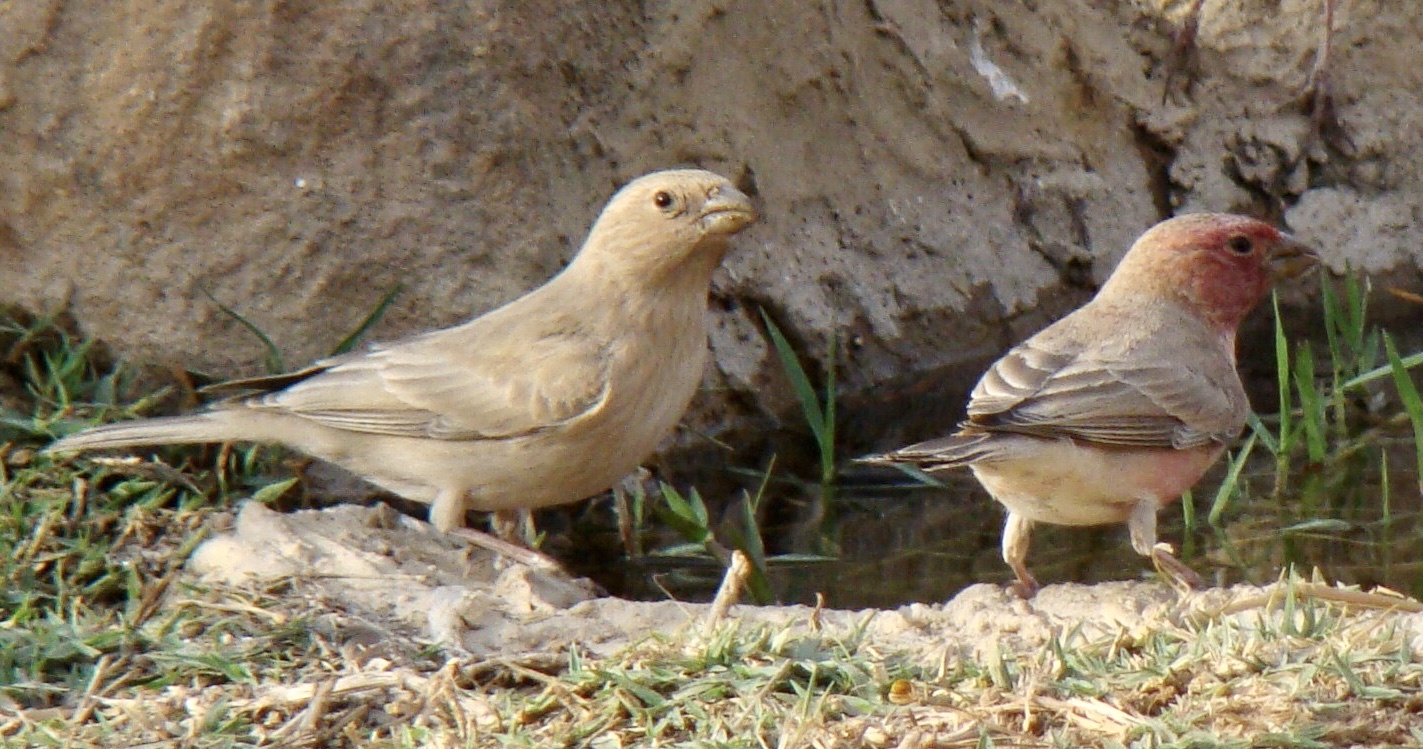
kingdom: Animalia
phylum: Chordata
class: Aves
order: Passeriformes
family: Fringillidae
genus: Carpodacus
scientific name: Carpodacus synoicus
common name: Sinai rosefinch
